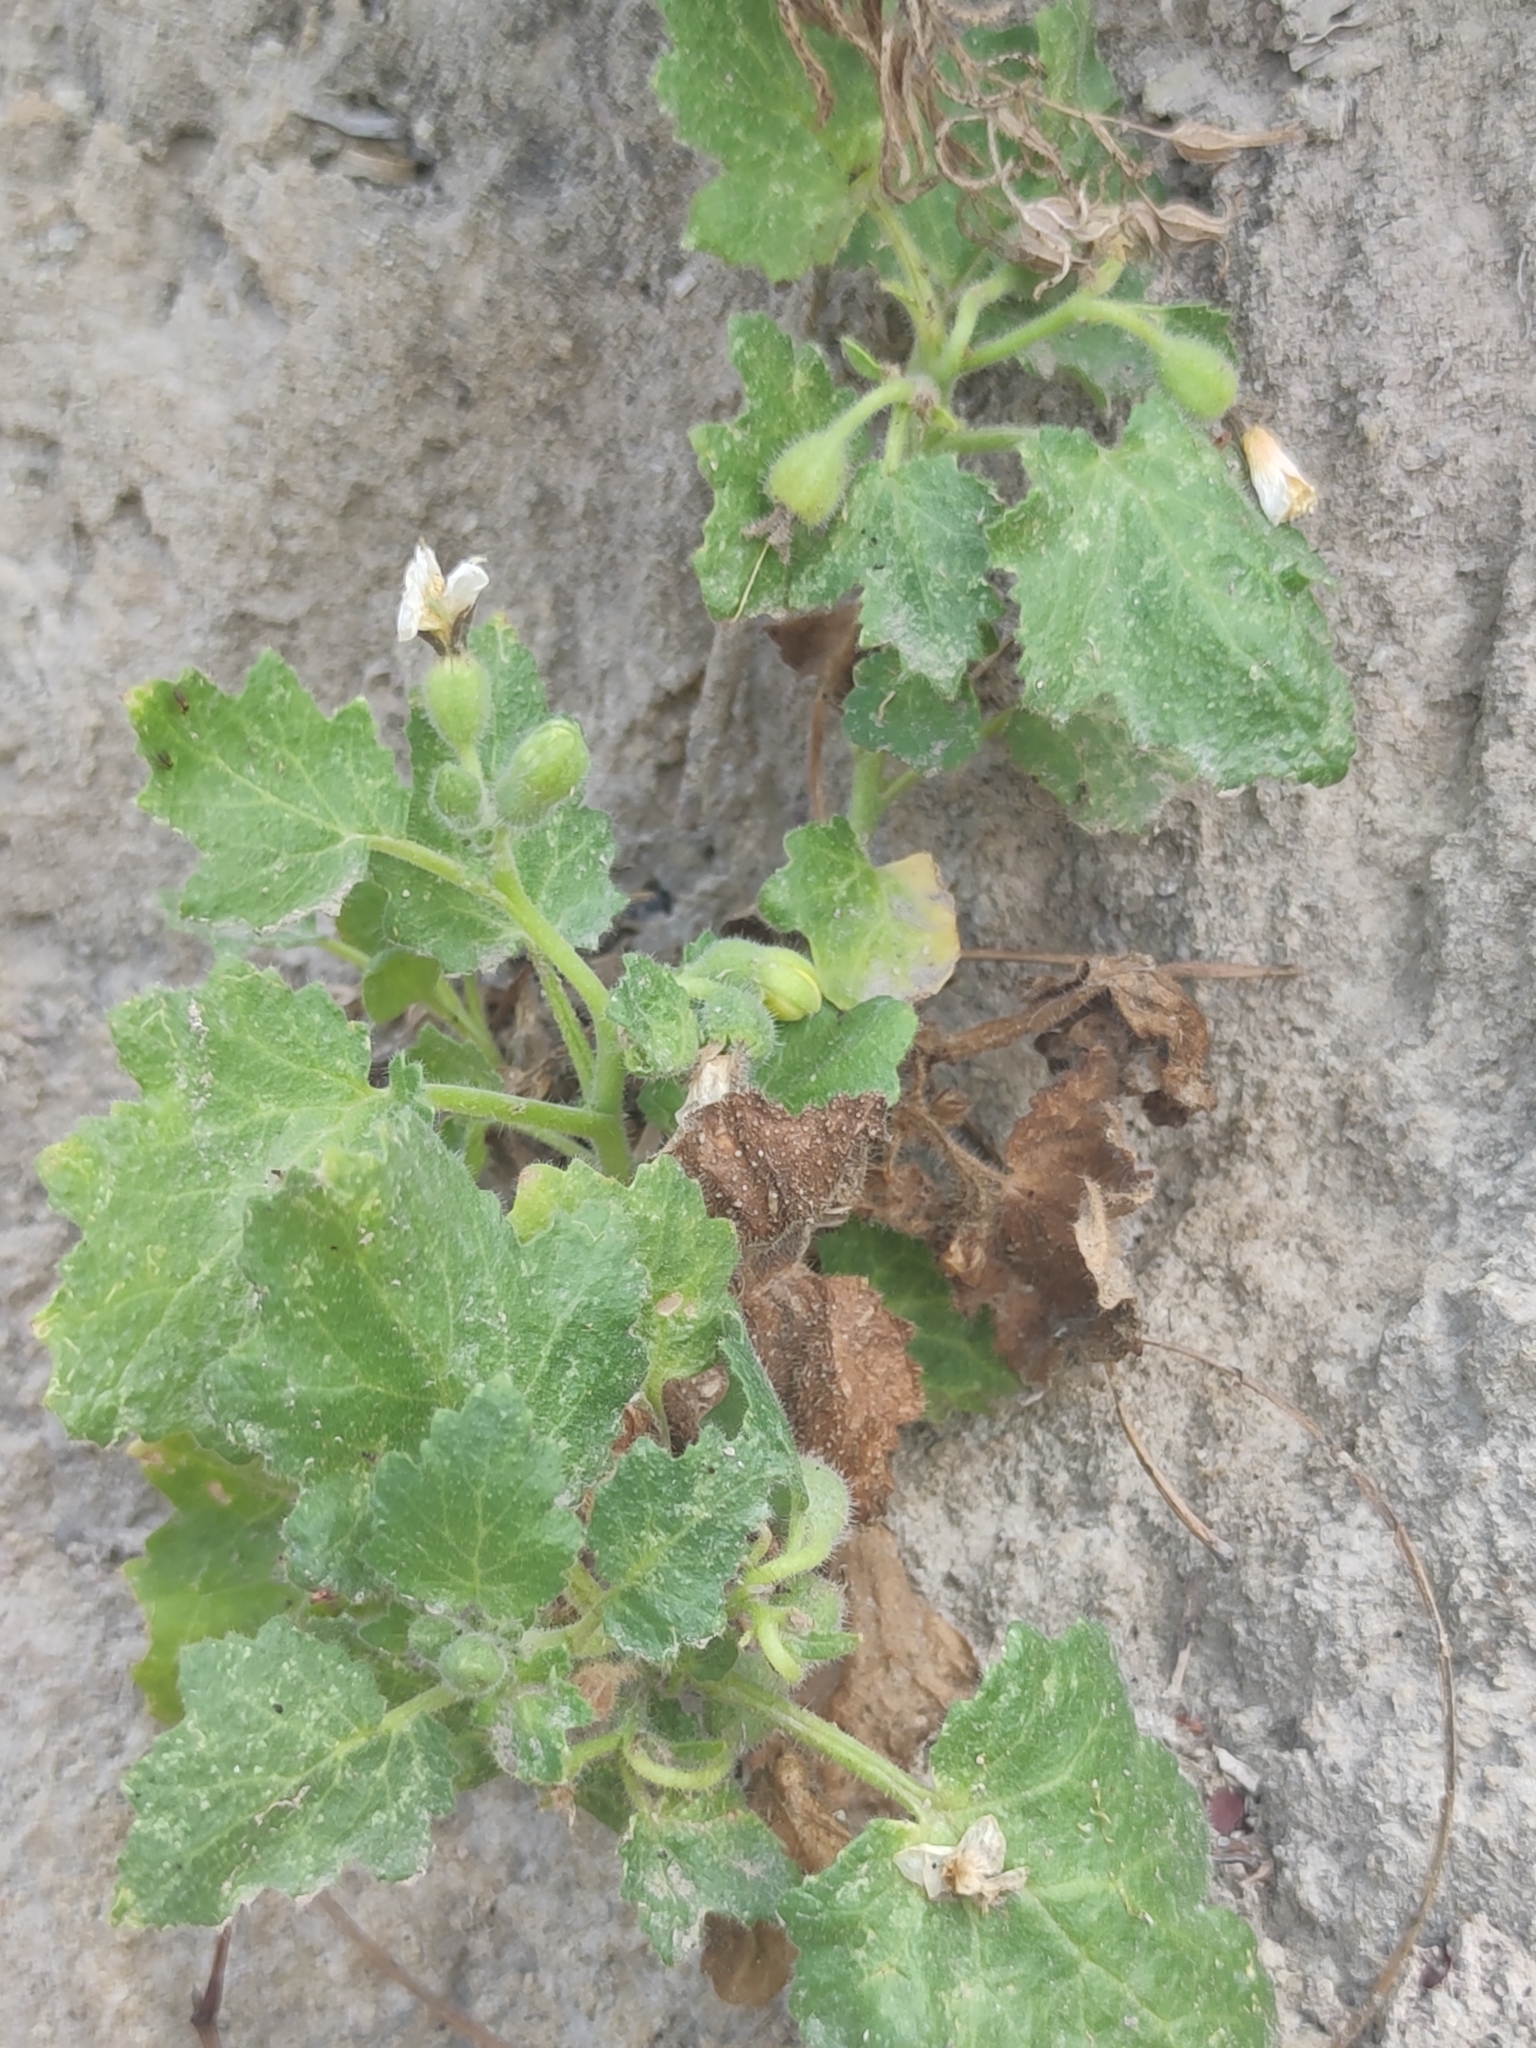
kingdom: Plantae
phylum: Tracheophyta
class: Magnoliopsida
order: Cornales
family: Loasaceae
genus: Eucnide
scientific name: Eucnide lobata
